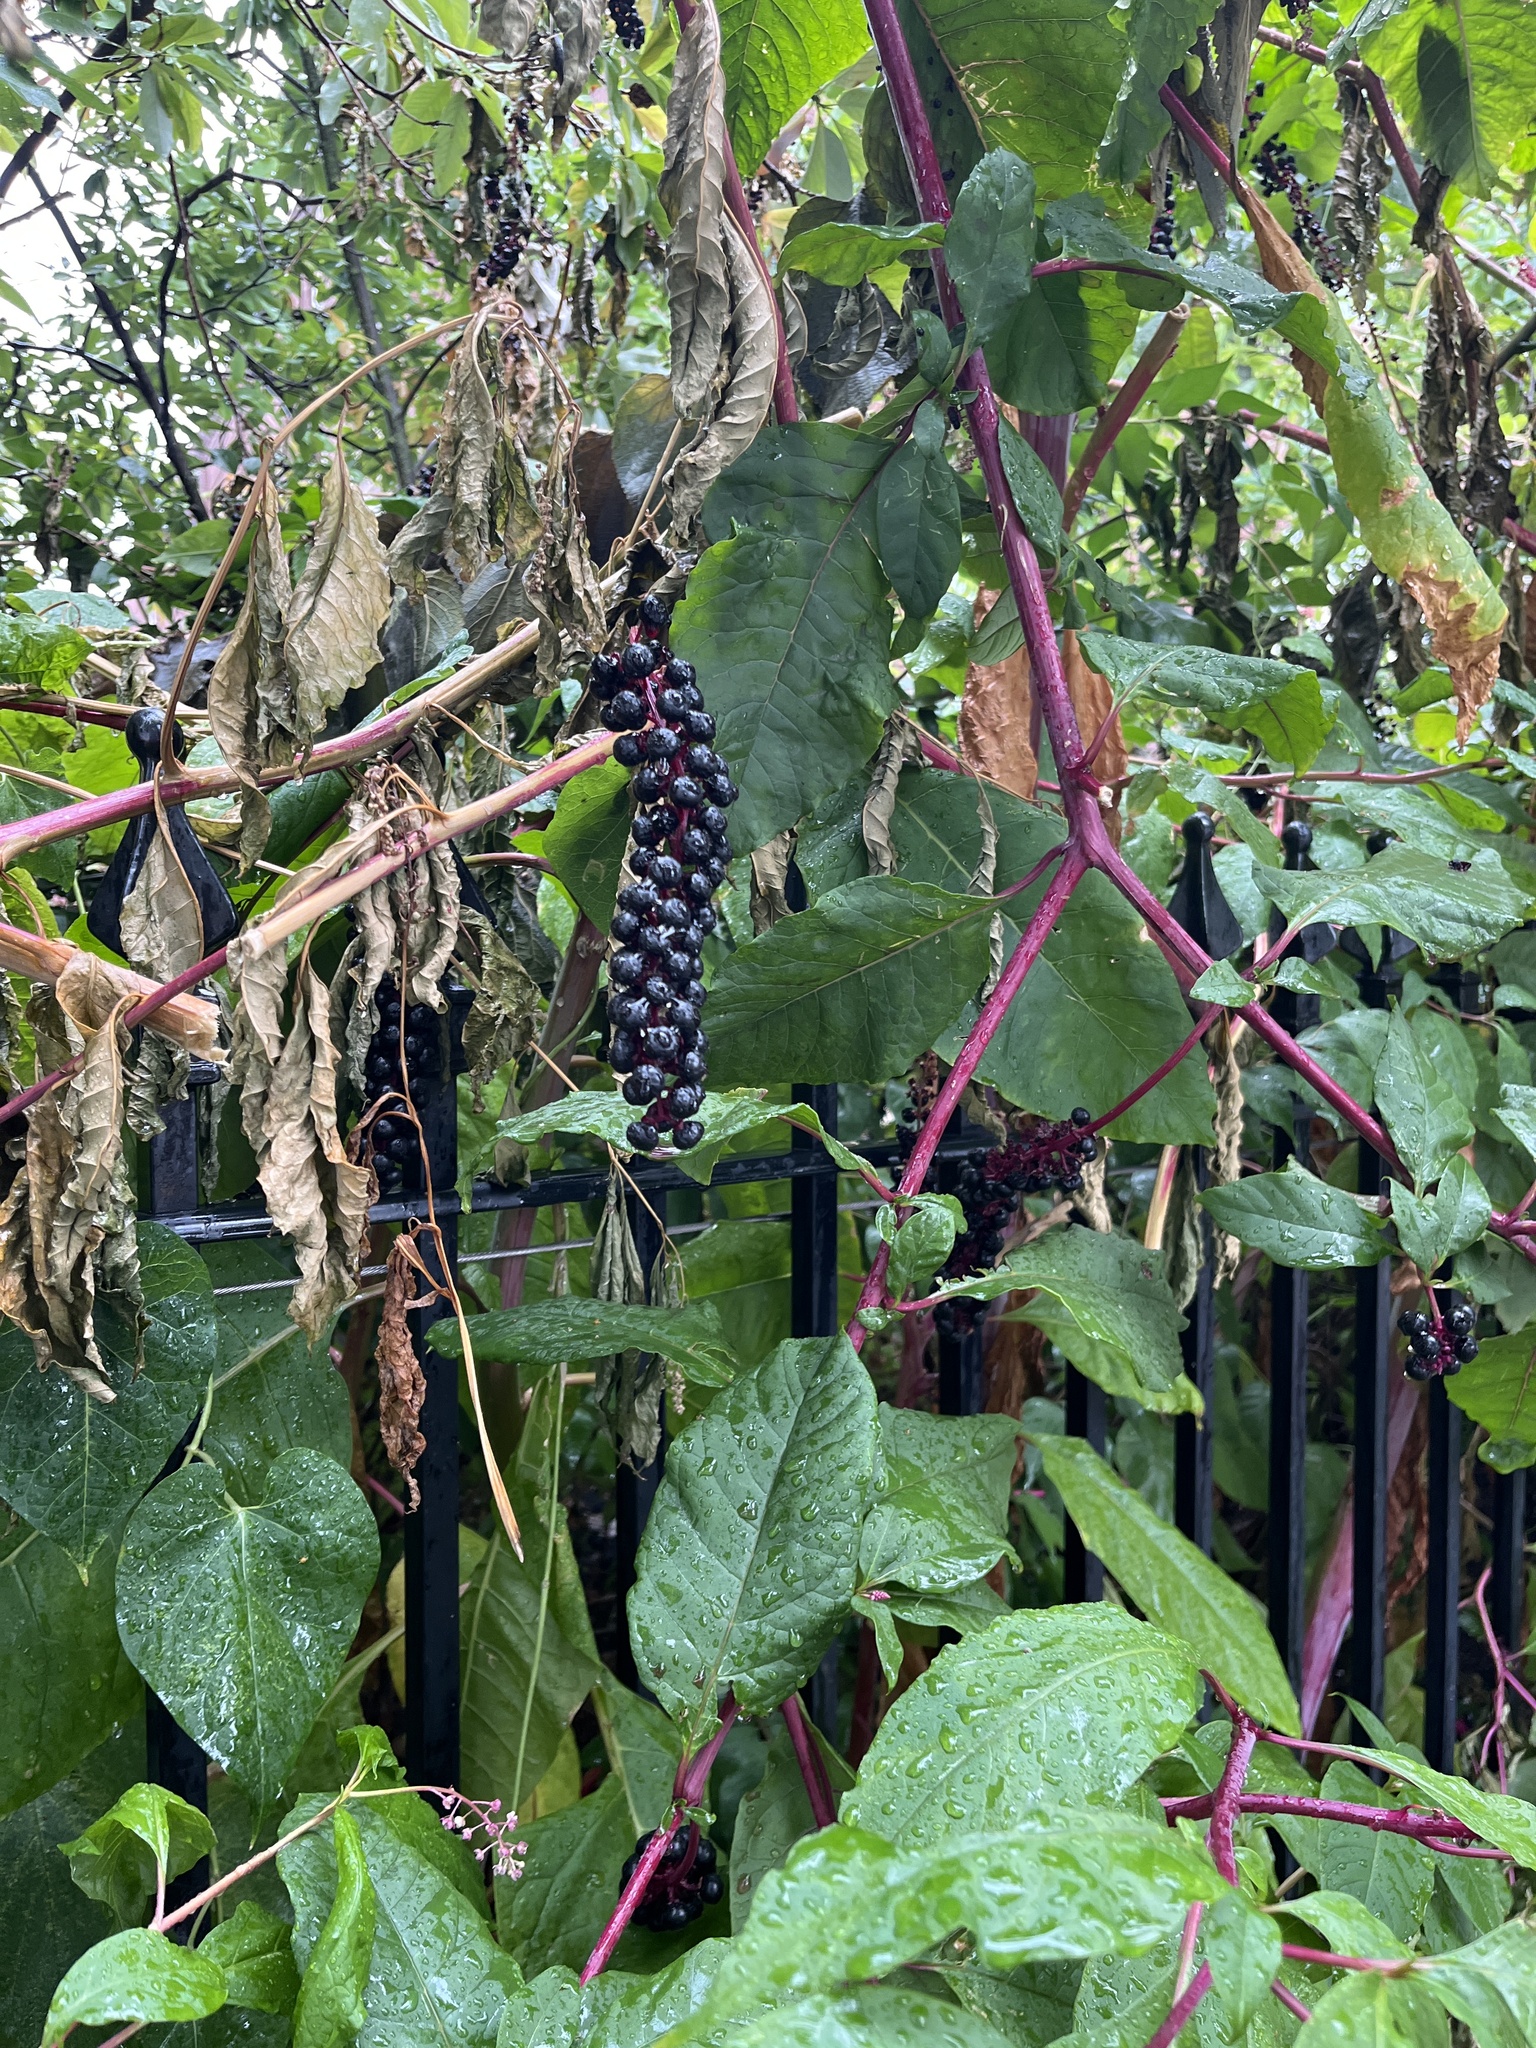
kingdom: Plantae
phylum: Tracheophyta
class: Magnoliopsida
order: Caryophyllales
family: Phytolaccaceae
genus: Phytolacca
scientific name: Phytolacca americana
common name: American pokeweed
